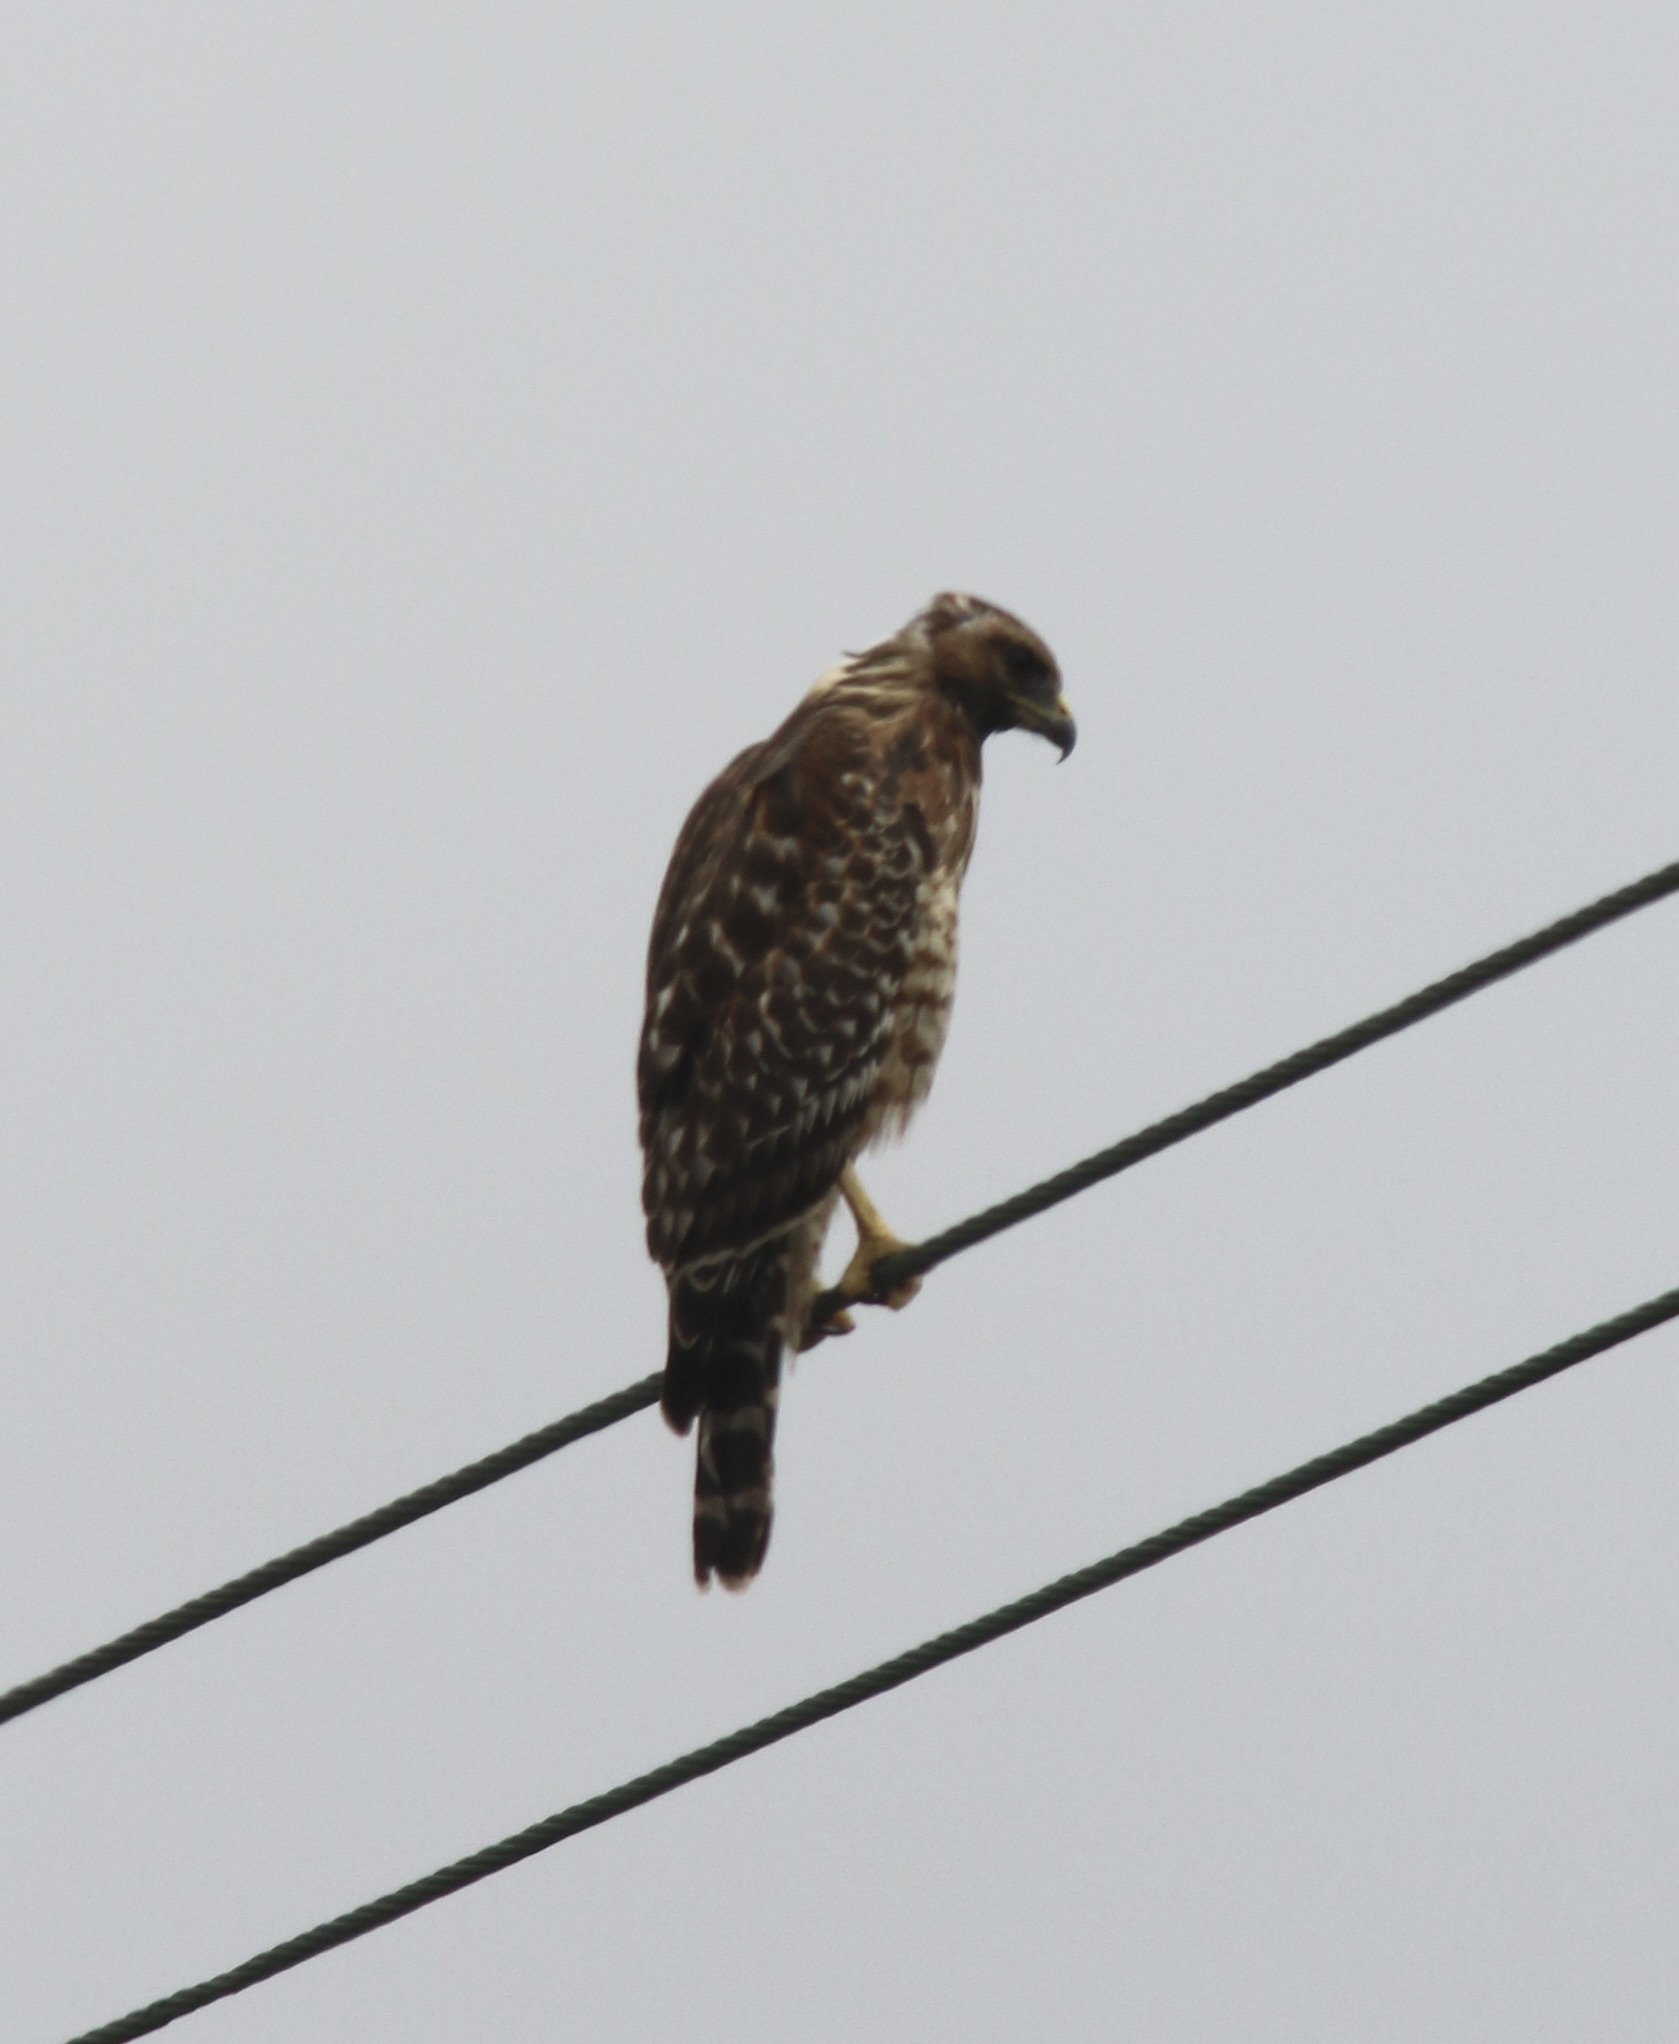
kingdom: Animalia
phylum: Chordata
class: Aves
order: Accipitriformes
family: Accipitridae
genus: Buteo
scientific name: Buteo lineatus
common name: Red-shouldered hawk
